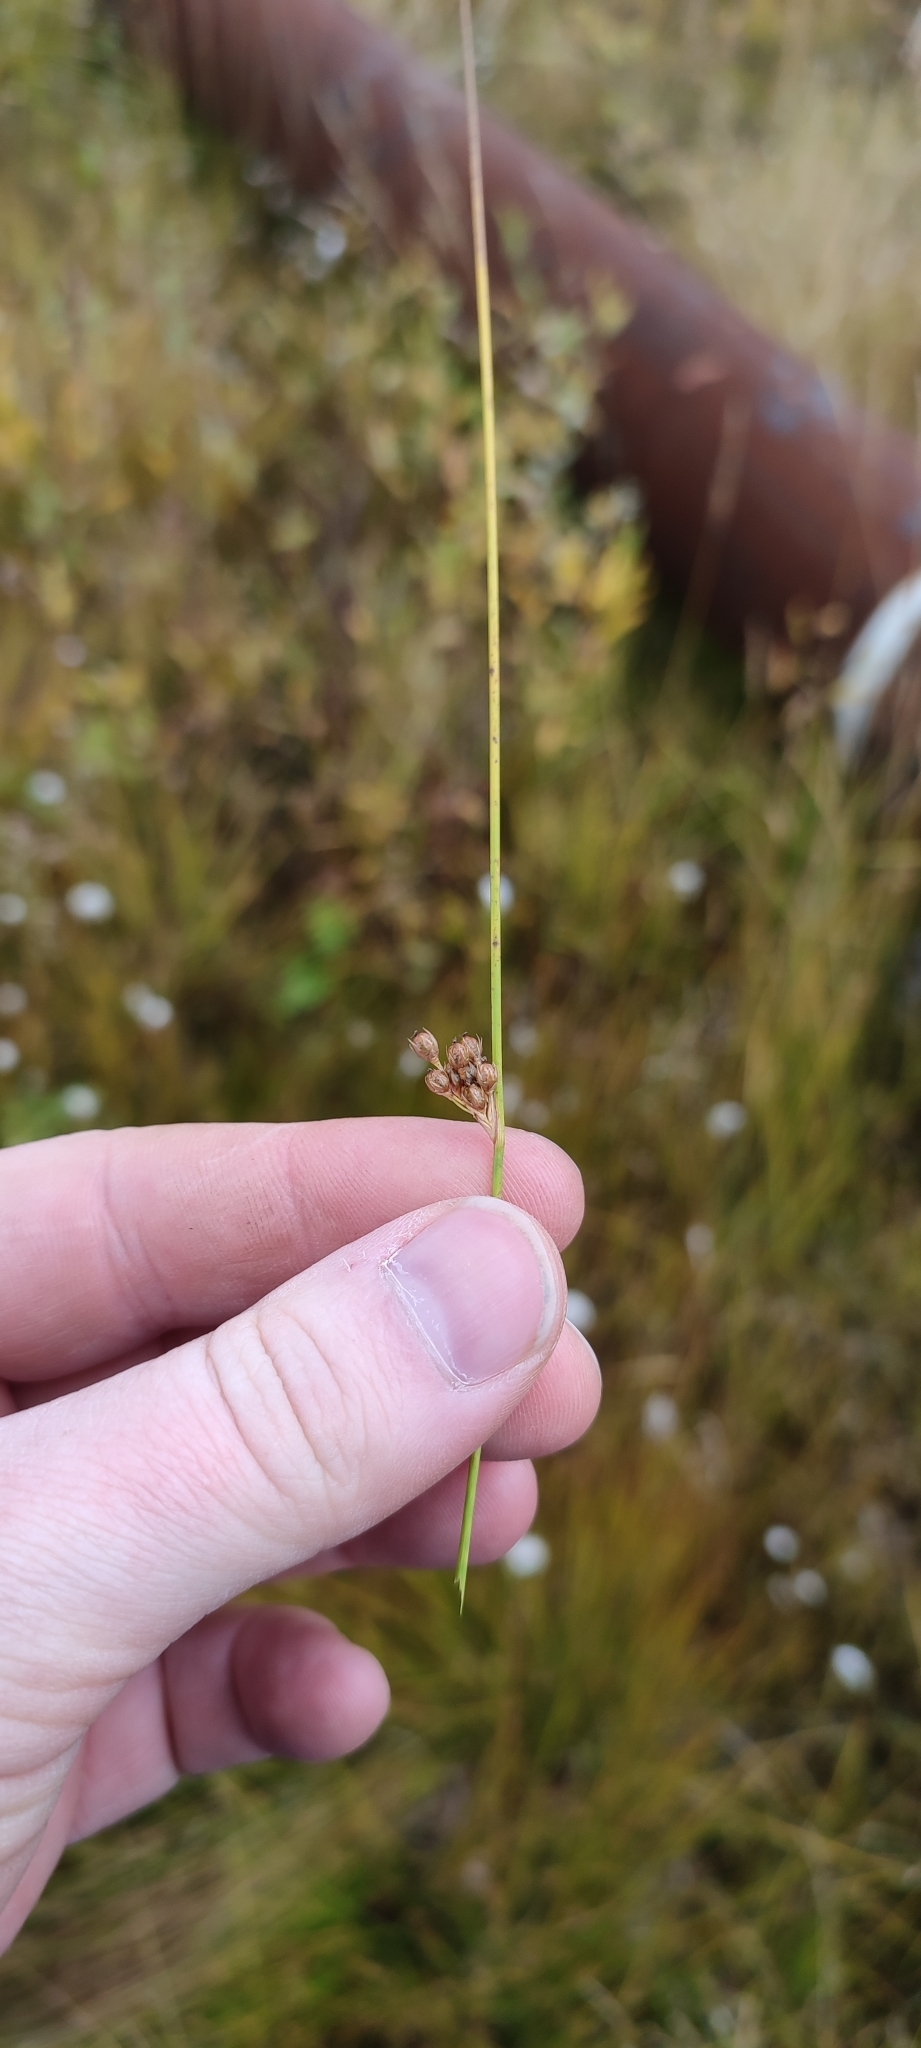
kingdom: Plantae
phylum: Tracheophyta
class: Liliopsida
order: Poales
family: Juncaceae
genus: Juncus
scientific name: Juncus filiformis
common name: Thread rush
